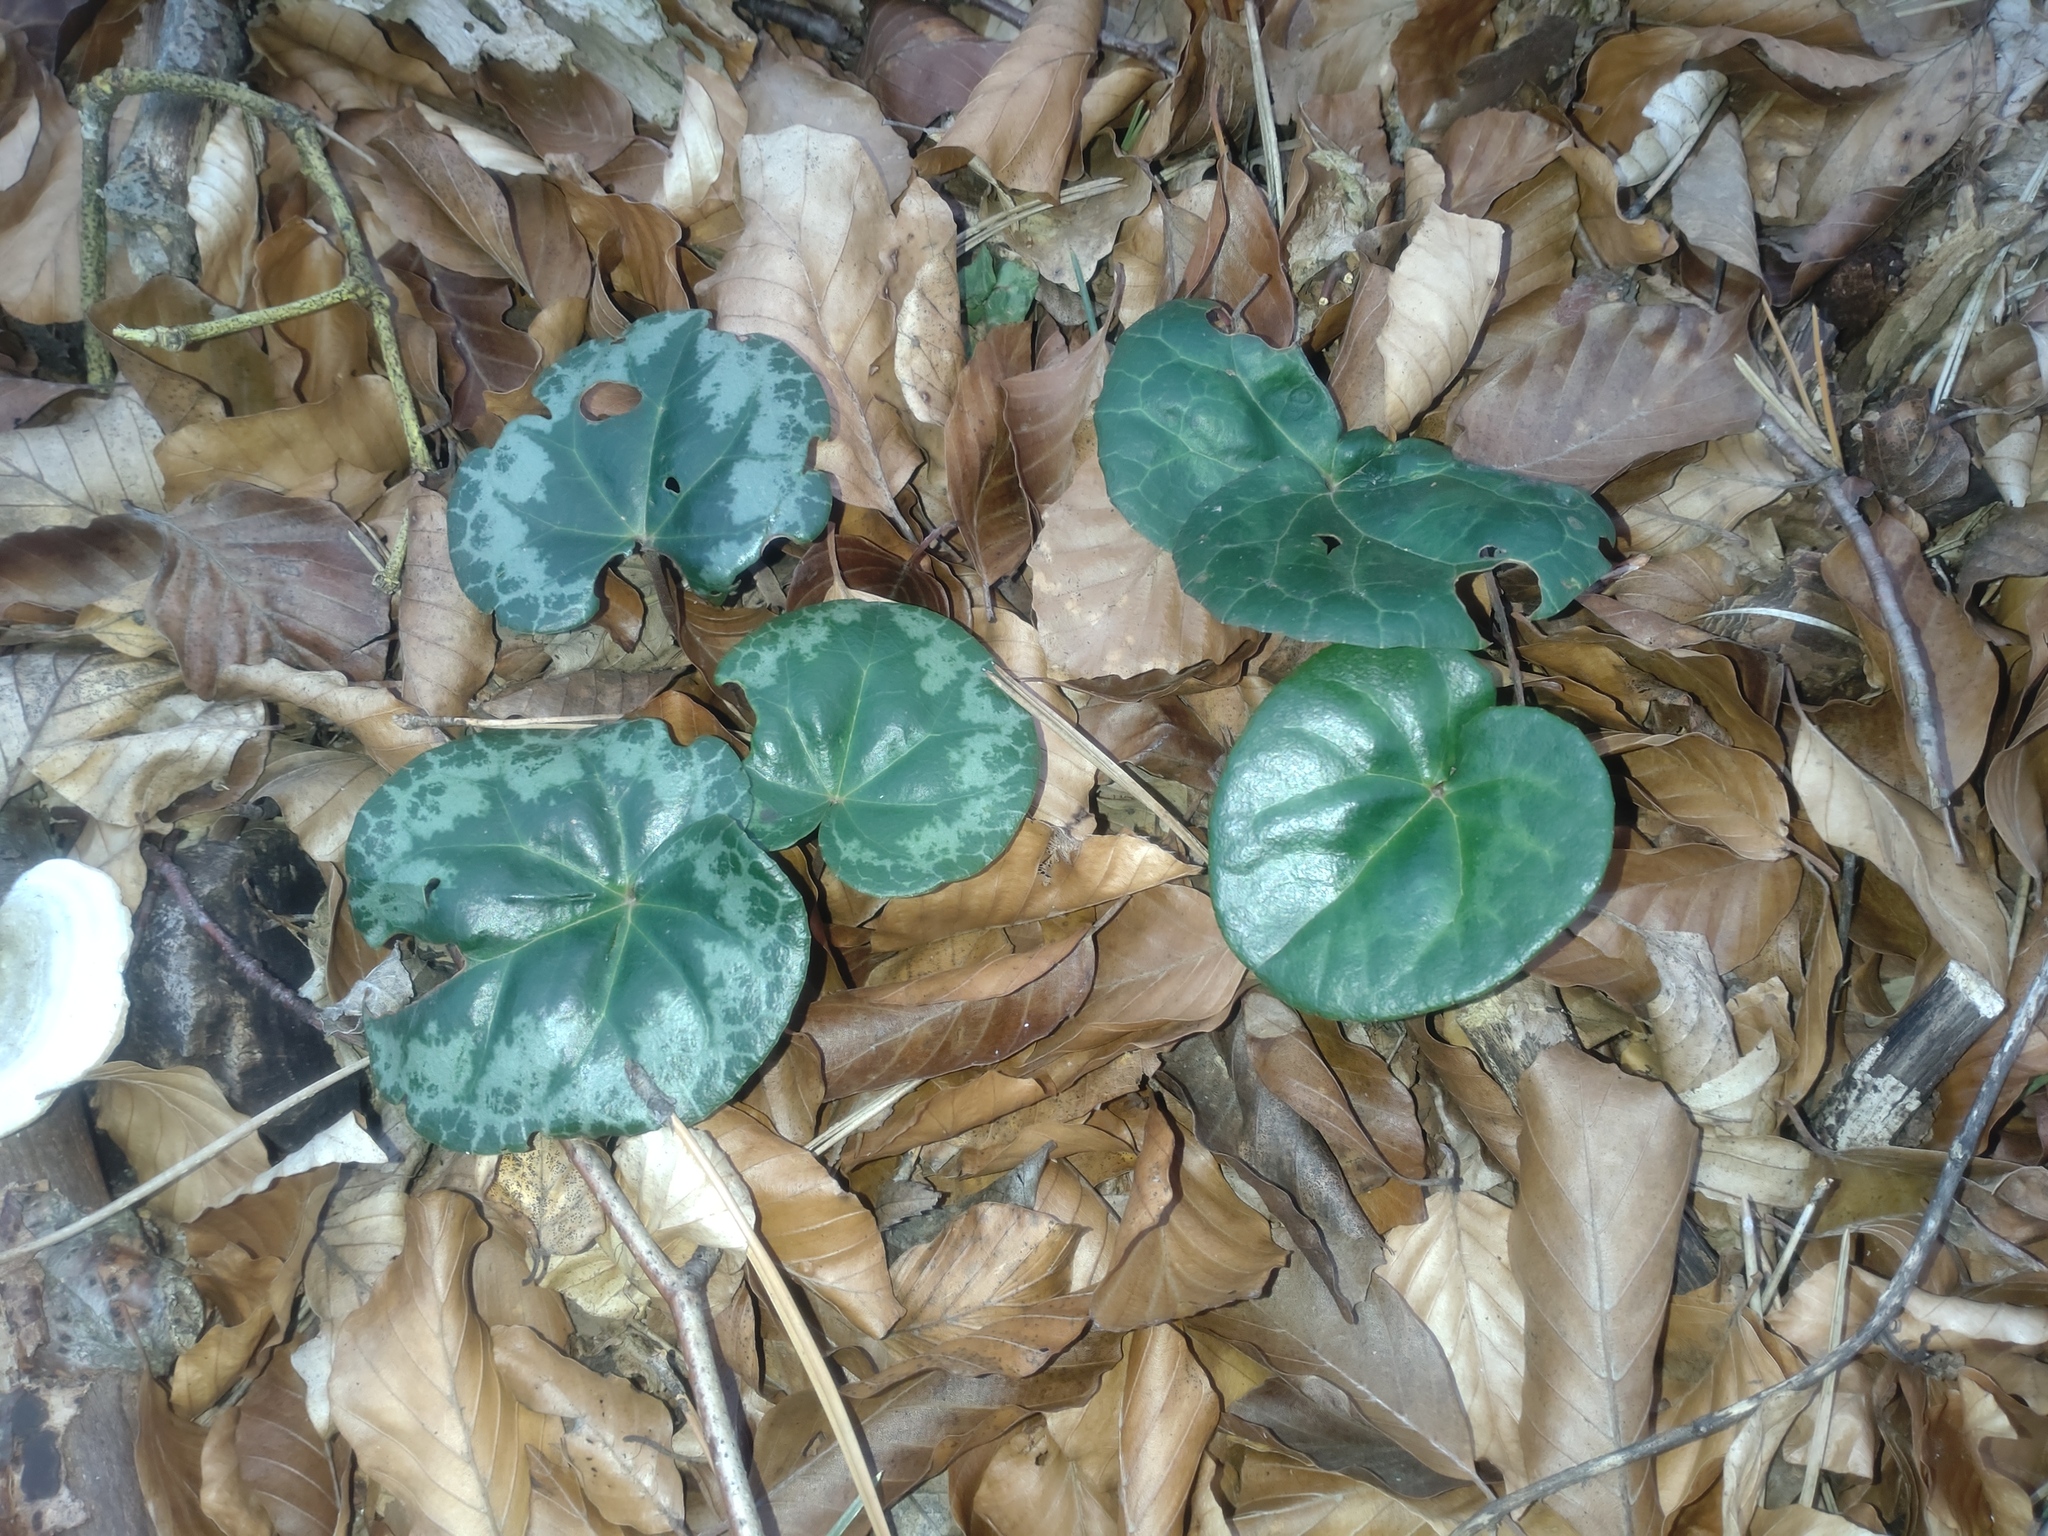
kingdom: Plantae
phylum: Tracheophyta
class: Magnoliopsida
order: Ericales
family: Primulaceae
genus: Cyclamen
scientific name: Cyclamen purpurascens
